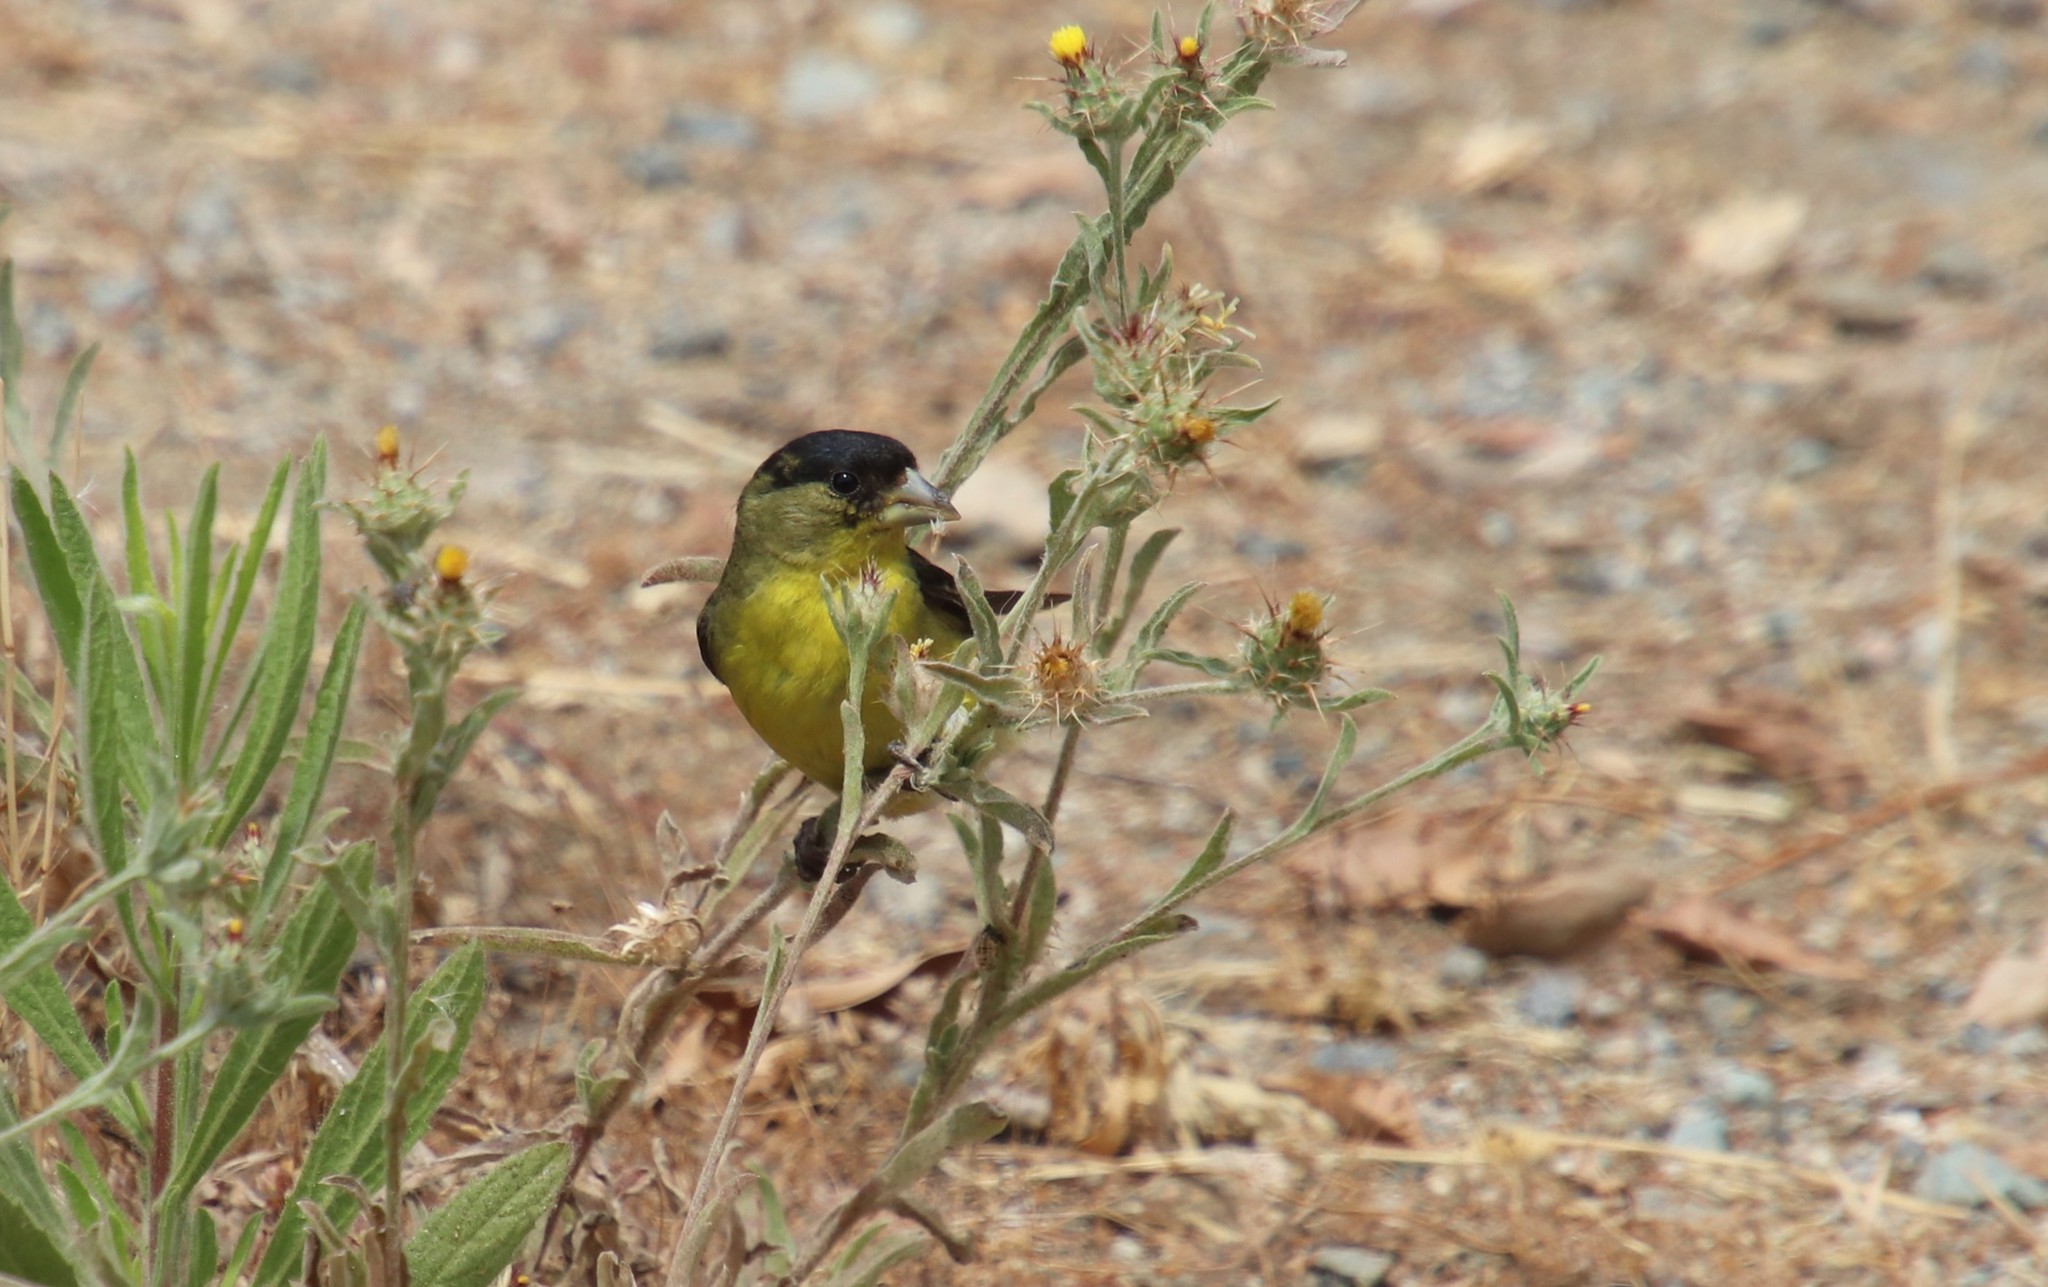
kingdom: Animalia
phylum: Chordata
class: Aves
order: Passeriformes
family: Fringillidae
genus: Spinus
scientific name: Spinus psaltria
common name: Lesser goldfinch
